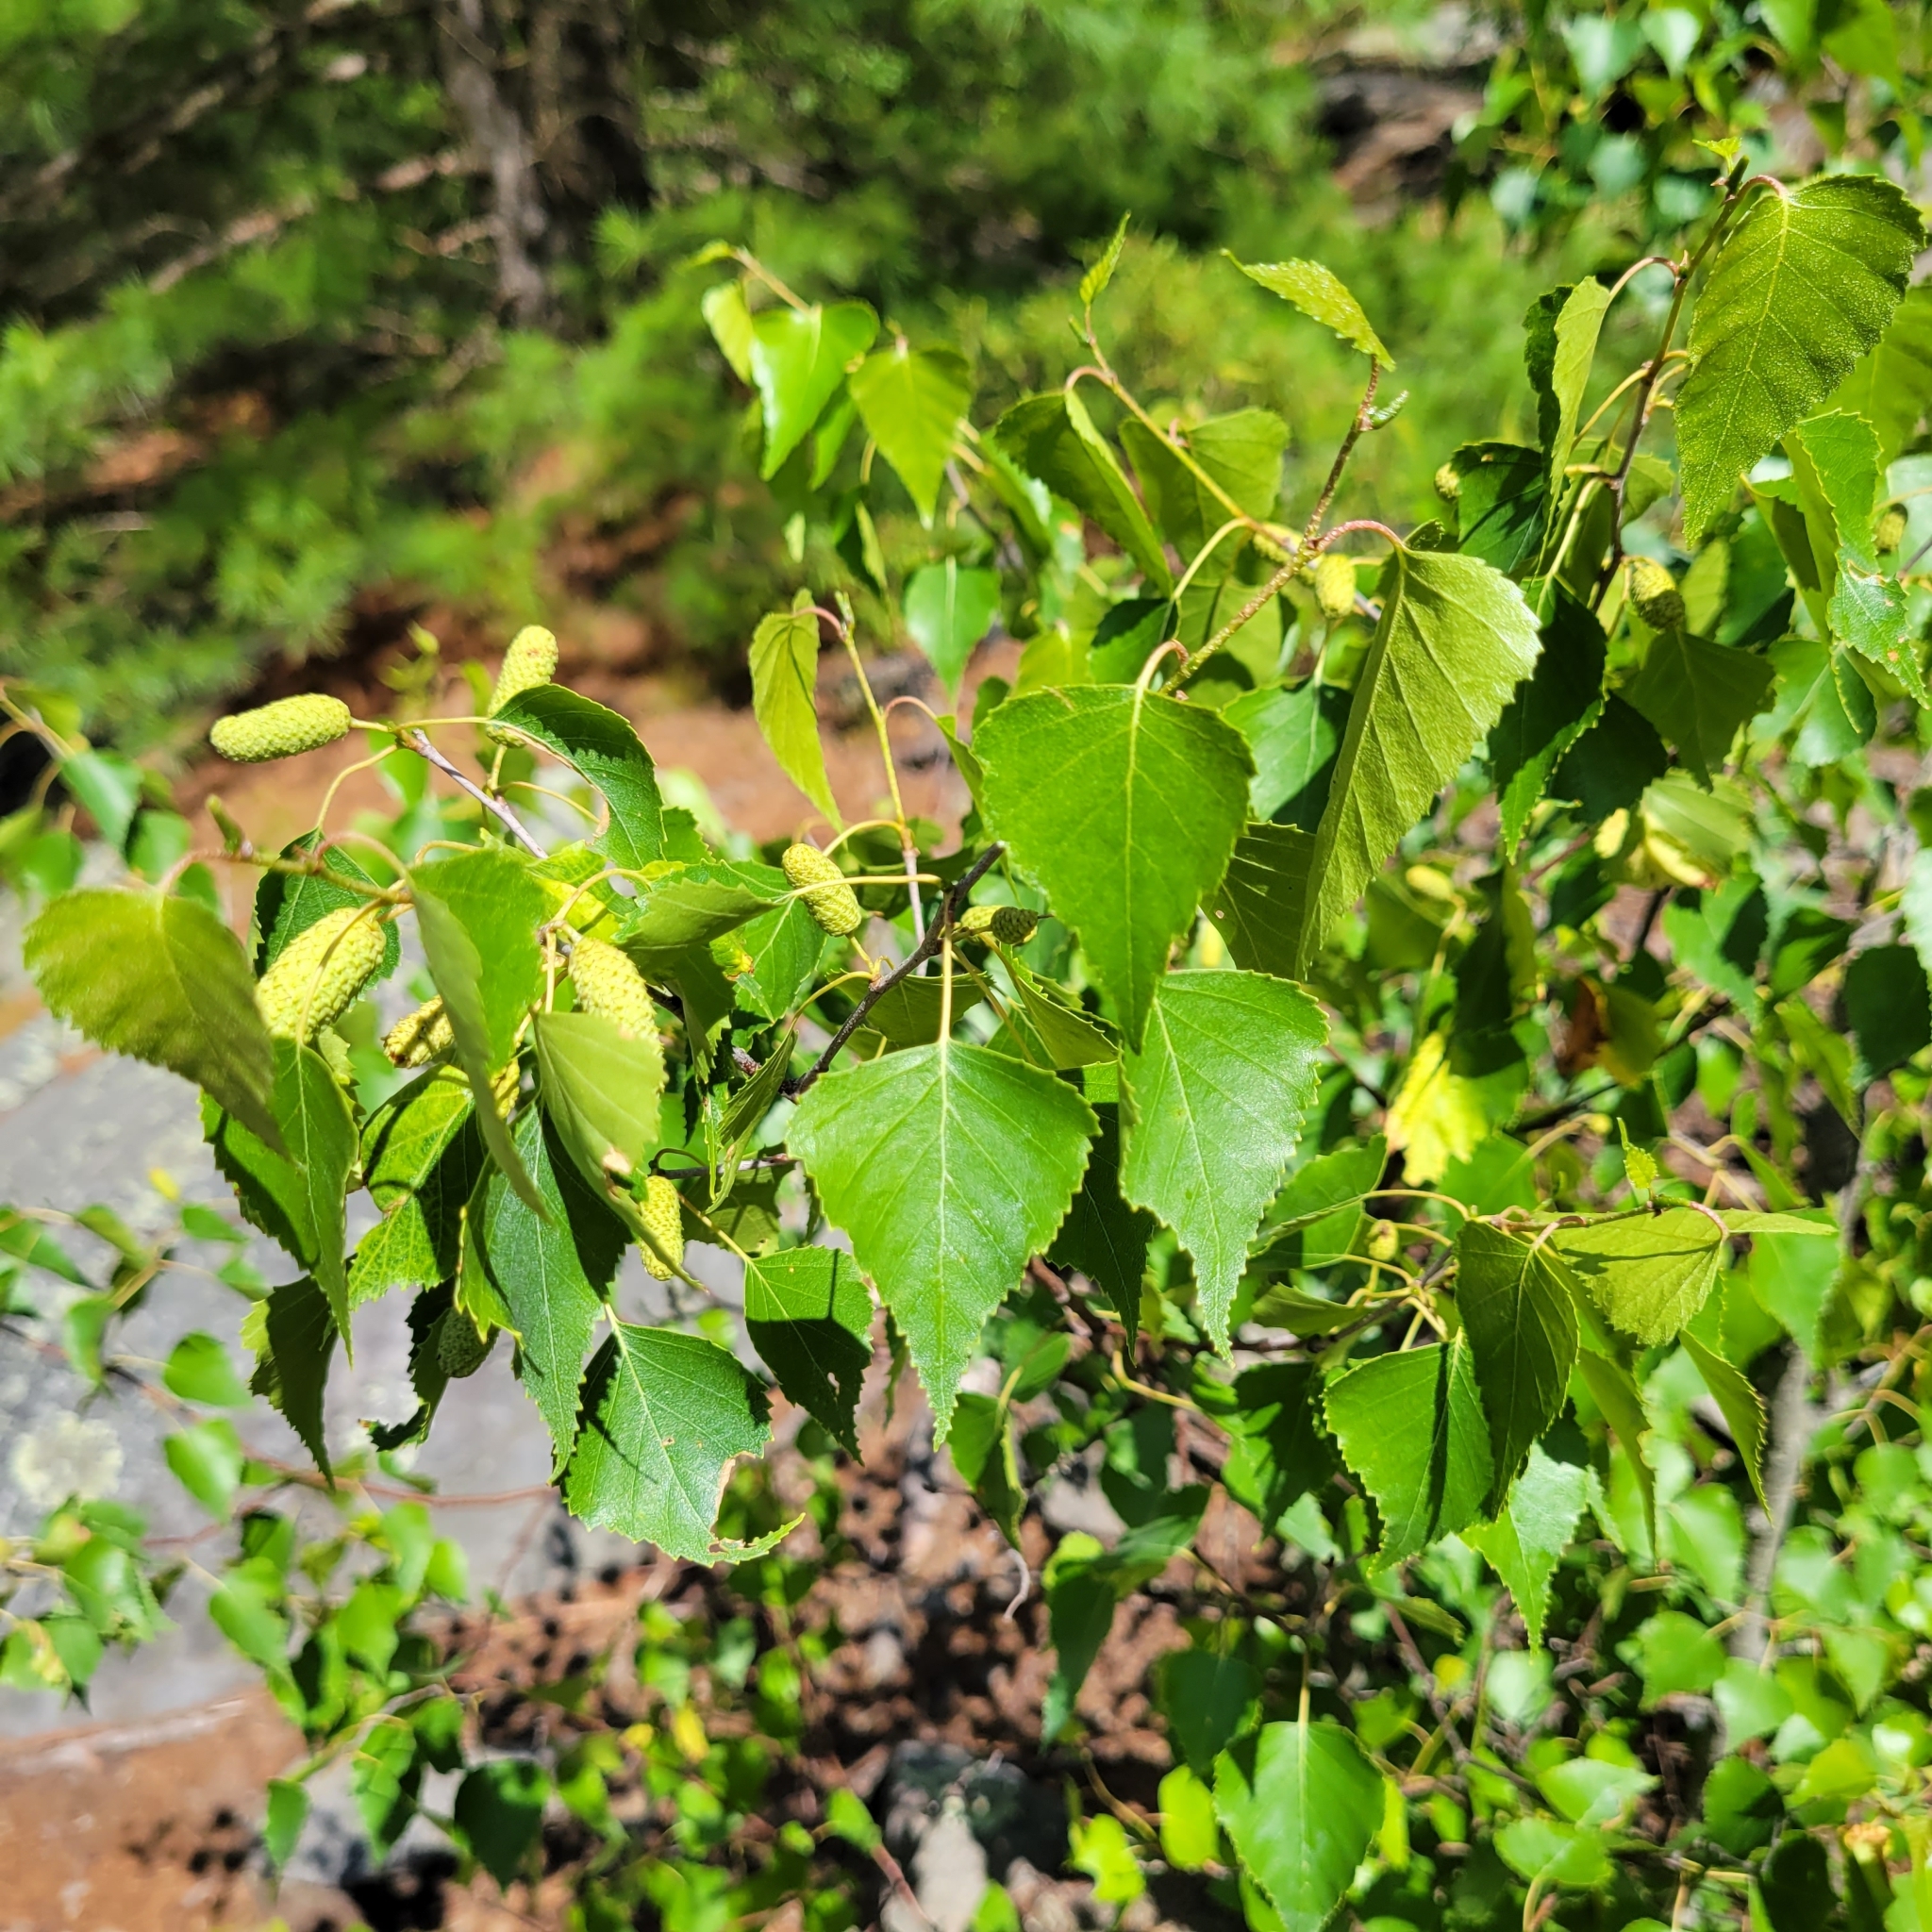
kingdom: Plantae
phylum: Tracheophyta
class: Magnoliopsida
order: Fagales
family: Betulaceae
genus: Betula
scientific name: Betula populifolia
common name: Fire birch
